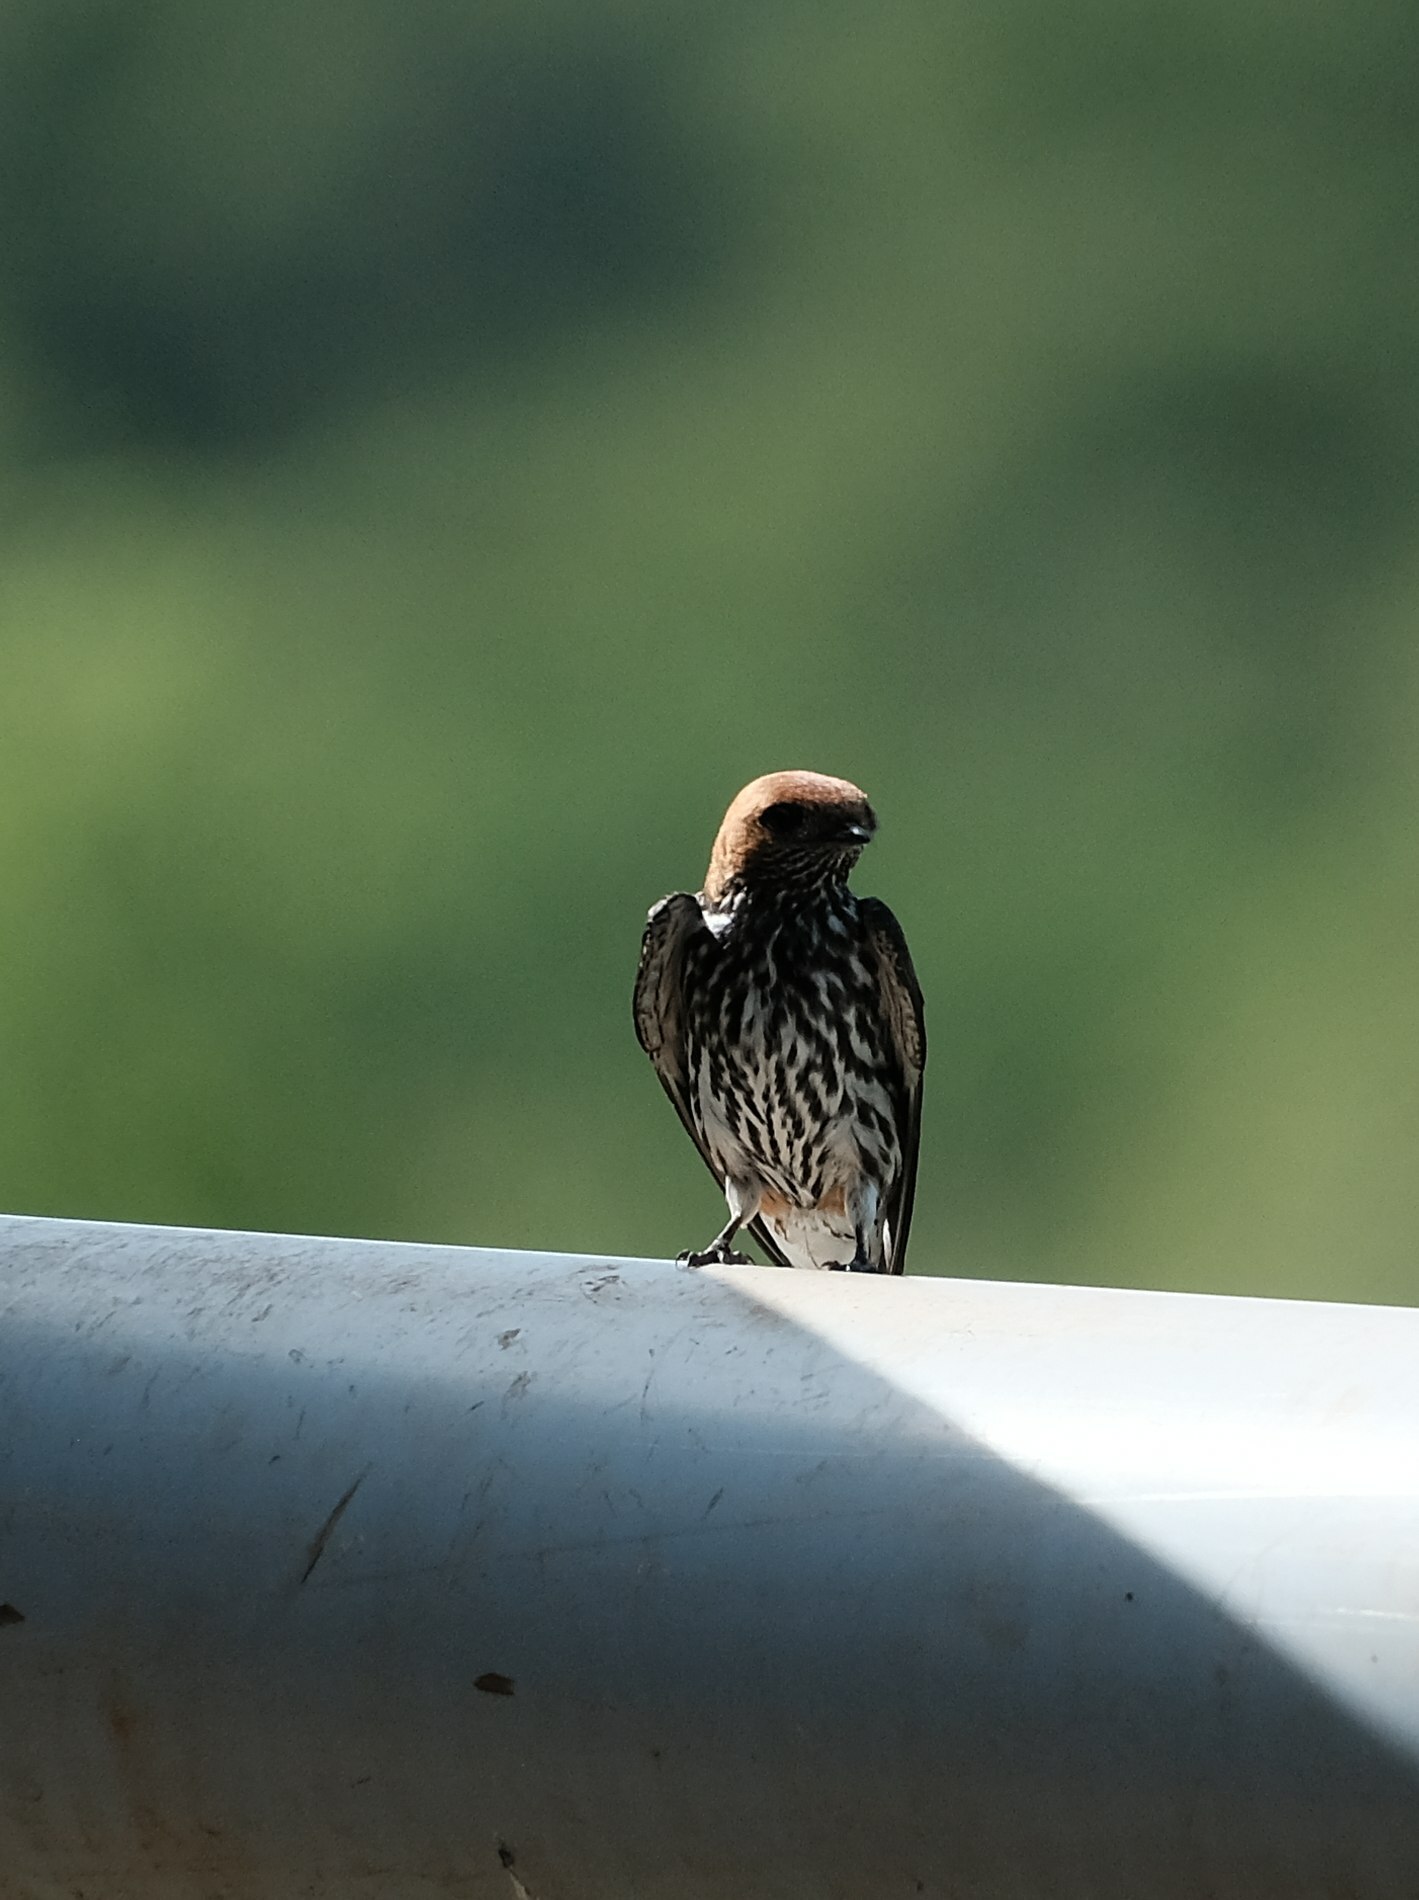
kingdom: Animalia
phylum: Chordata
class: Aves
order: Passeriformes
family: Hirundinidae
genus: Cecropis
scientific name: Cecropis abyssinica
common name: Lesser striped-swallow
